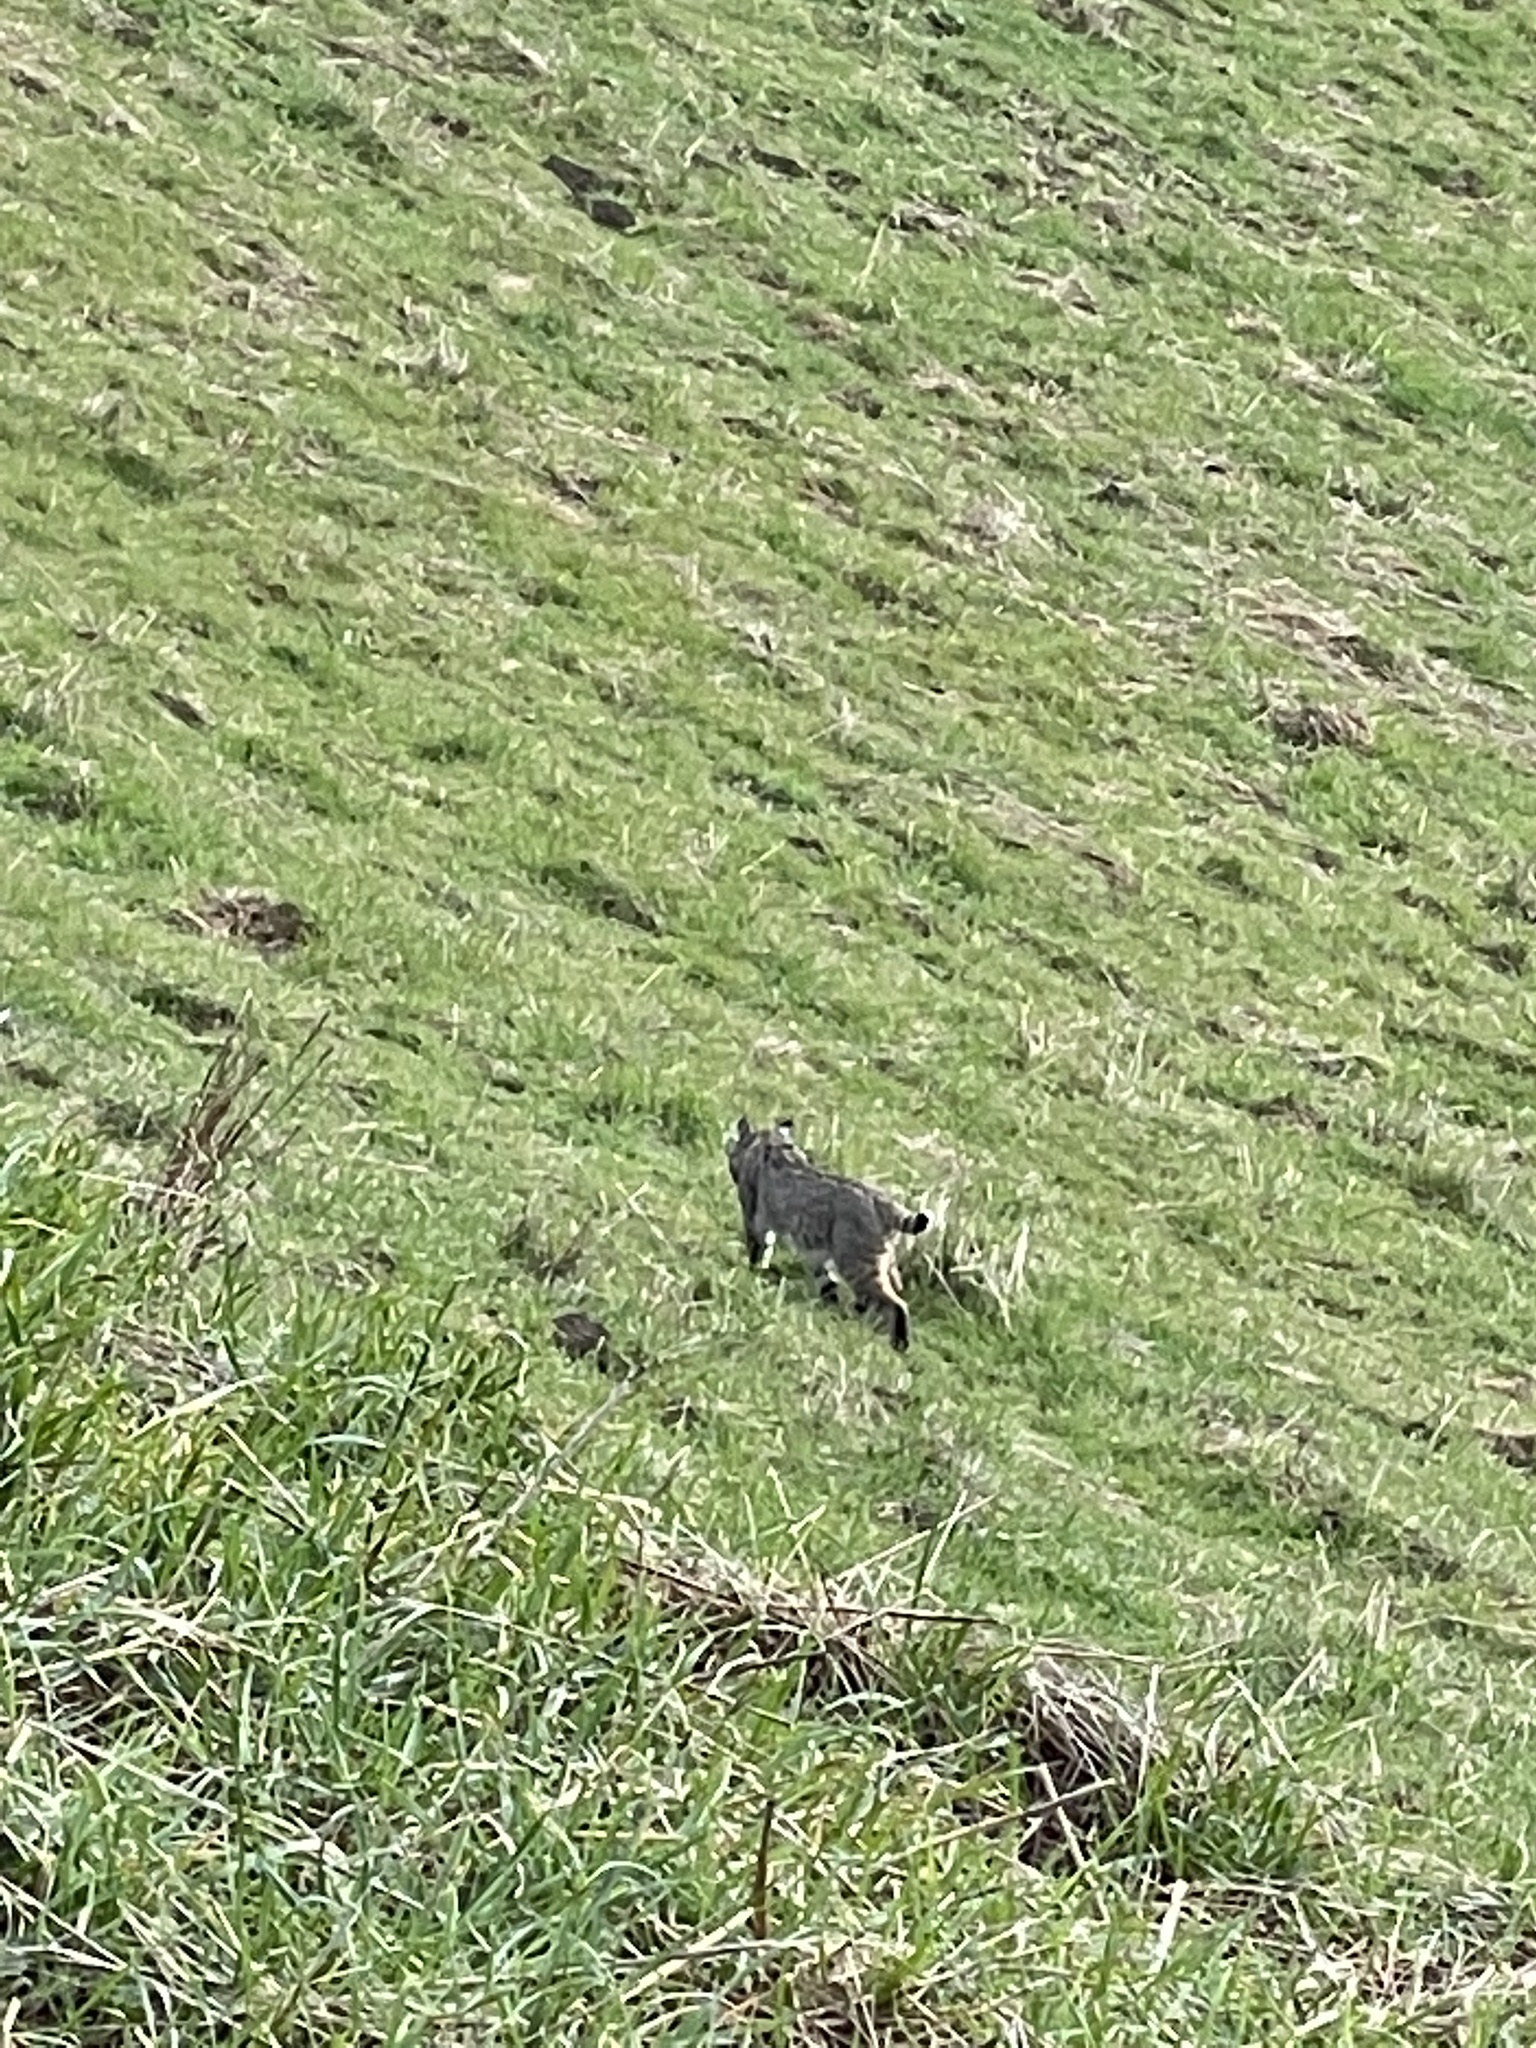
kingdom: Animalia
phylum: Chordata
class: Mammalia
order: Carnivora
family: Felidae
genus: Lynx
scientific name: Lynx rufus
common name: Bobcat
